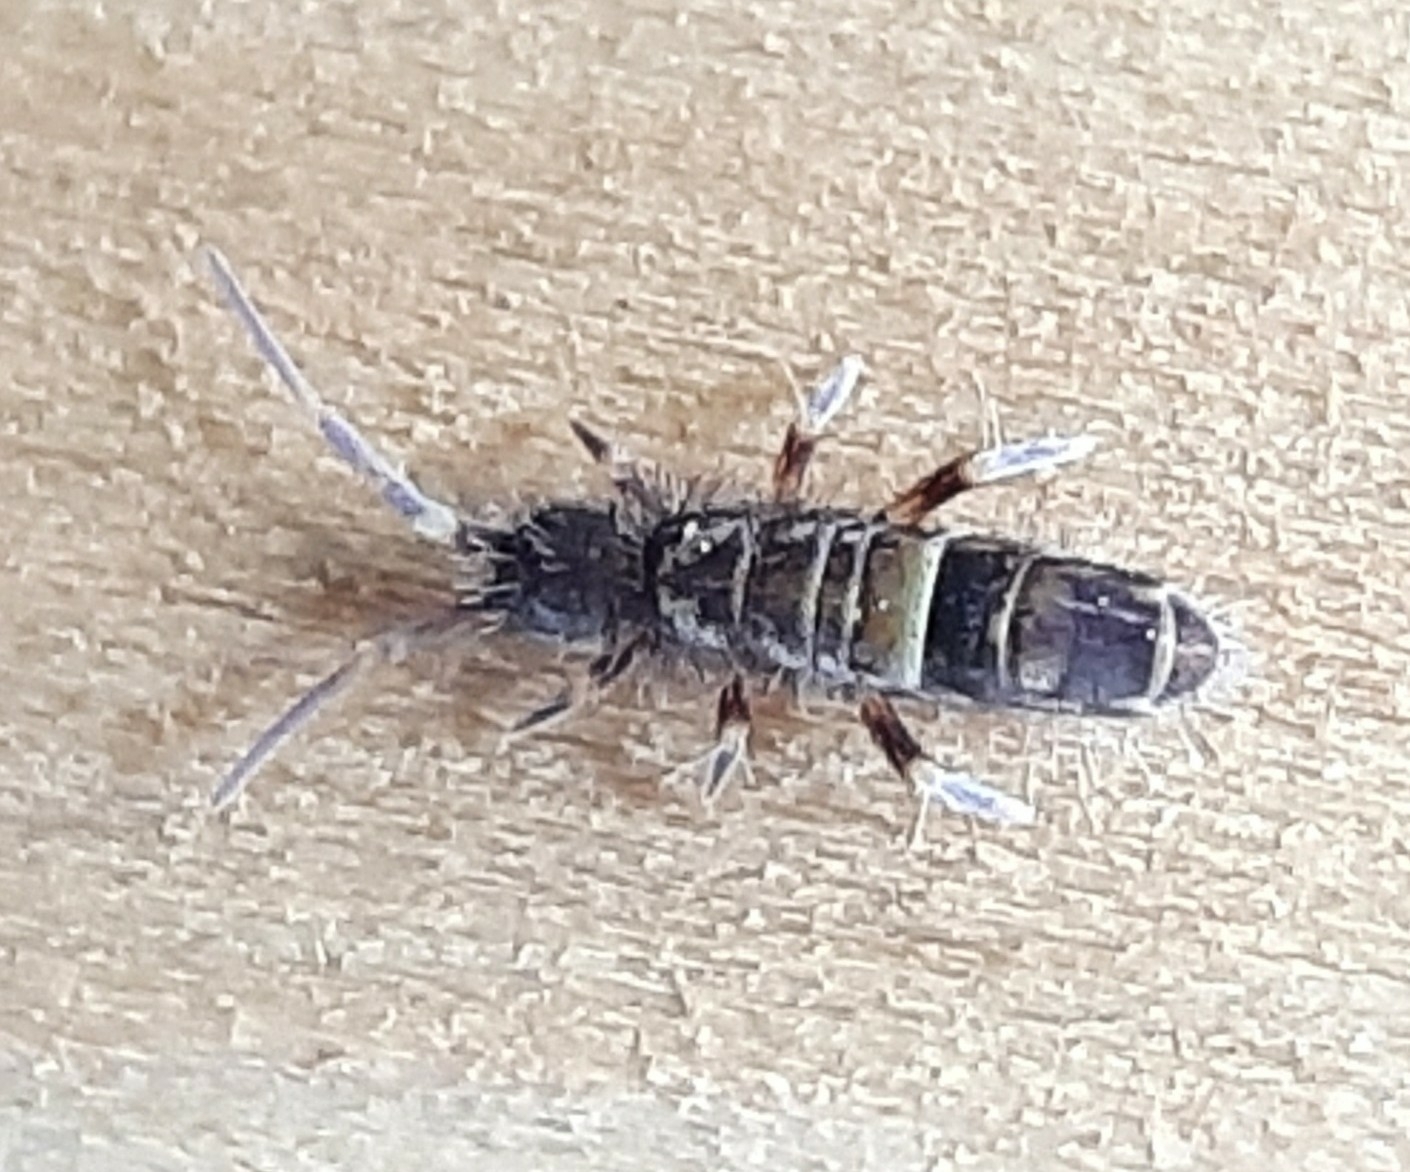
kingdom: Animalia
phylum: Arthropoda
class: Collembola
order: Entomobryomorpha
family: Orchesellidae
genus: Orchesella
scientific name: Orchesella cincta
